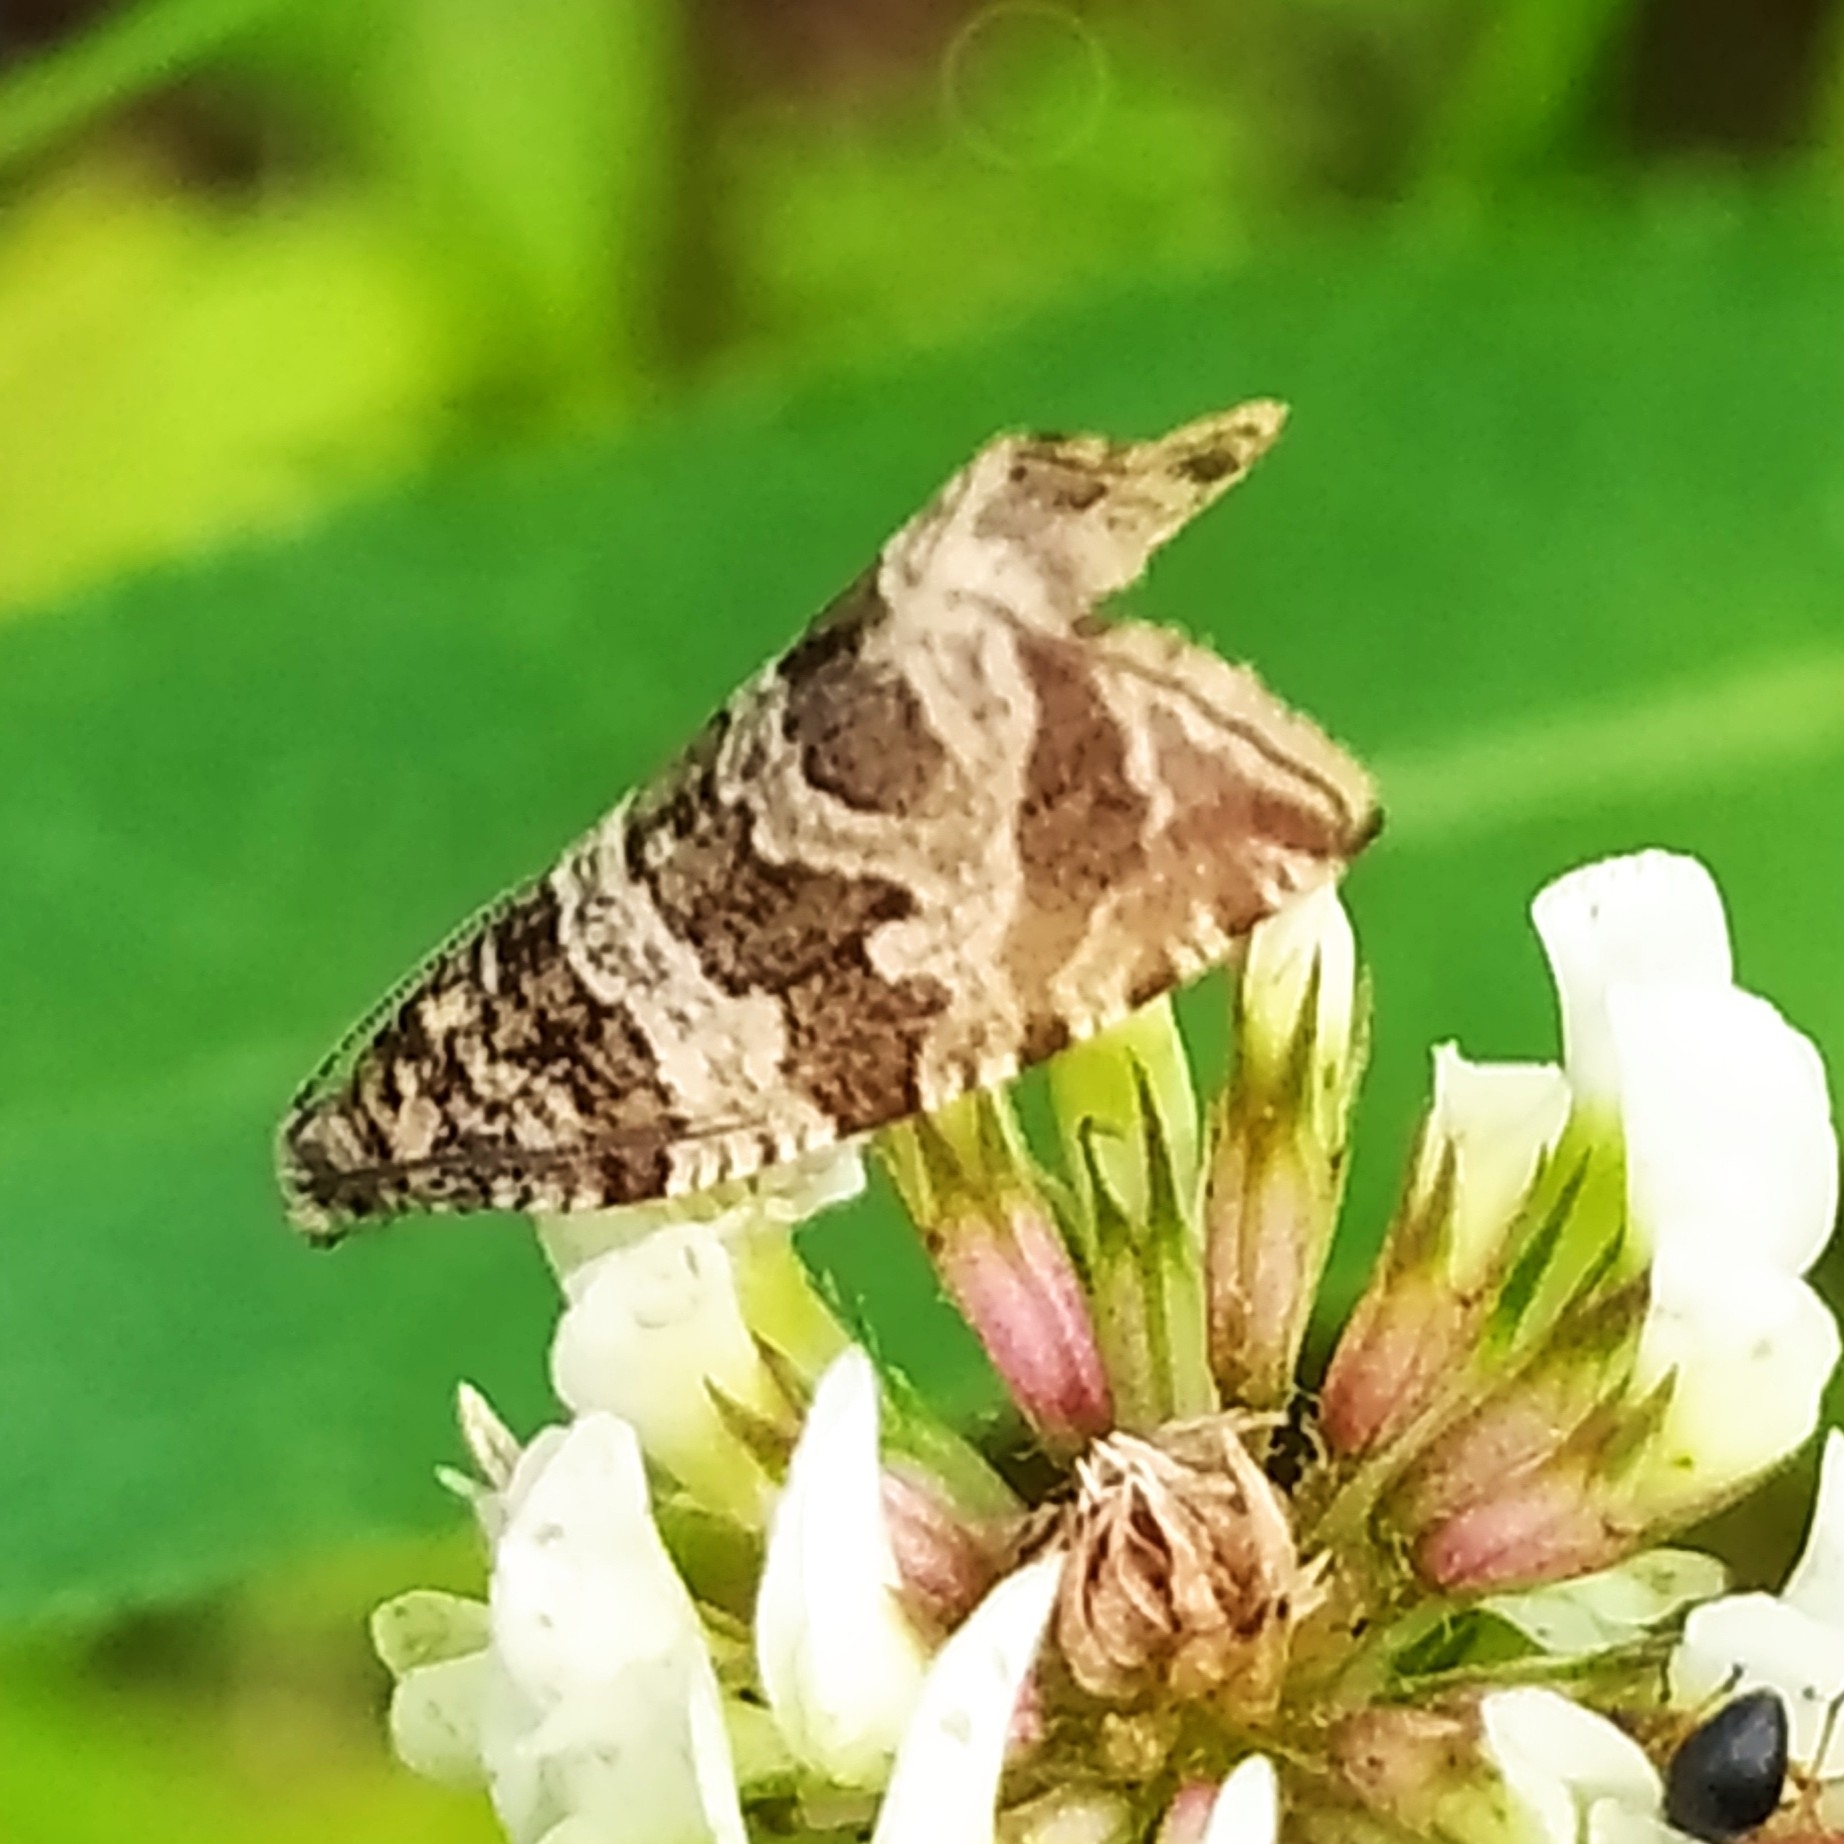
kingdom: Animalia
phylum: Arthropoda
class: Insecta
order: Lepidoptera
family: Tortricidae
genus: Syricoris
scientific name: Syricoris rivulana
